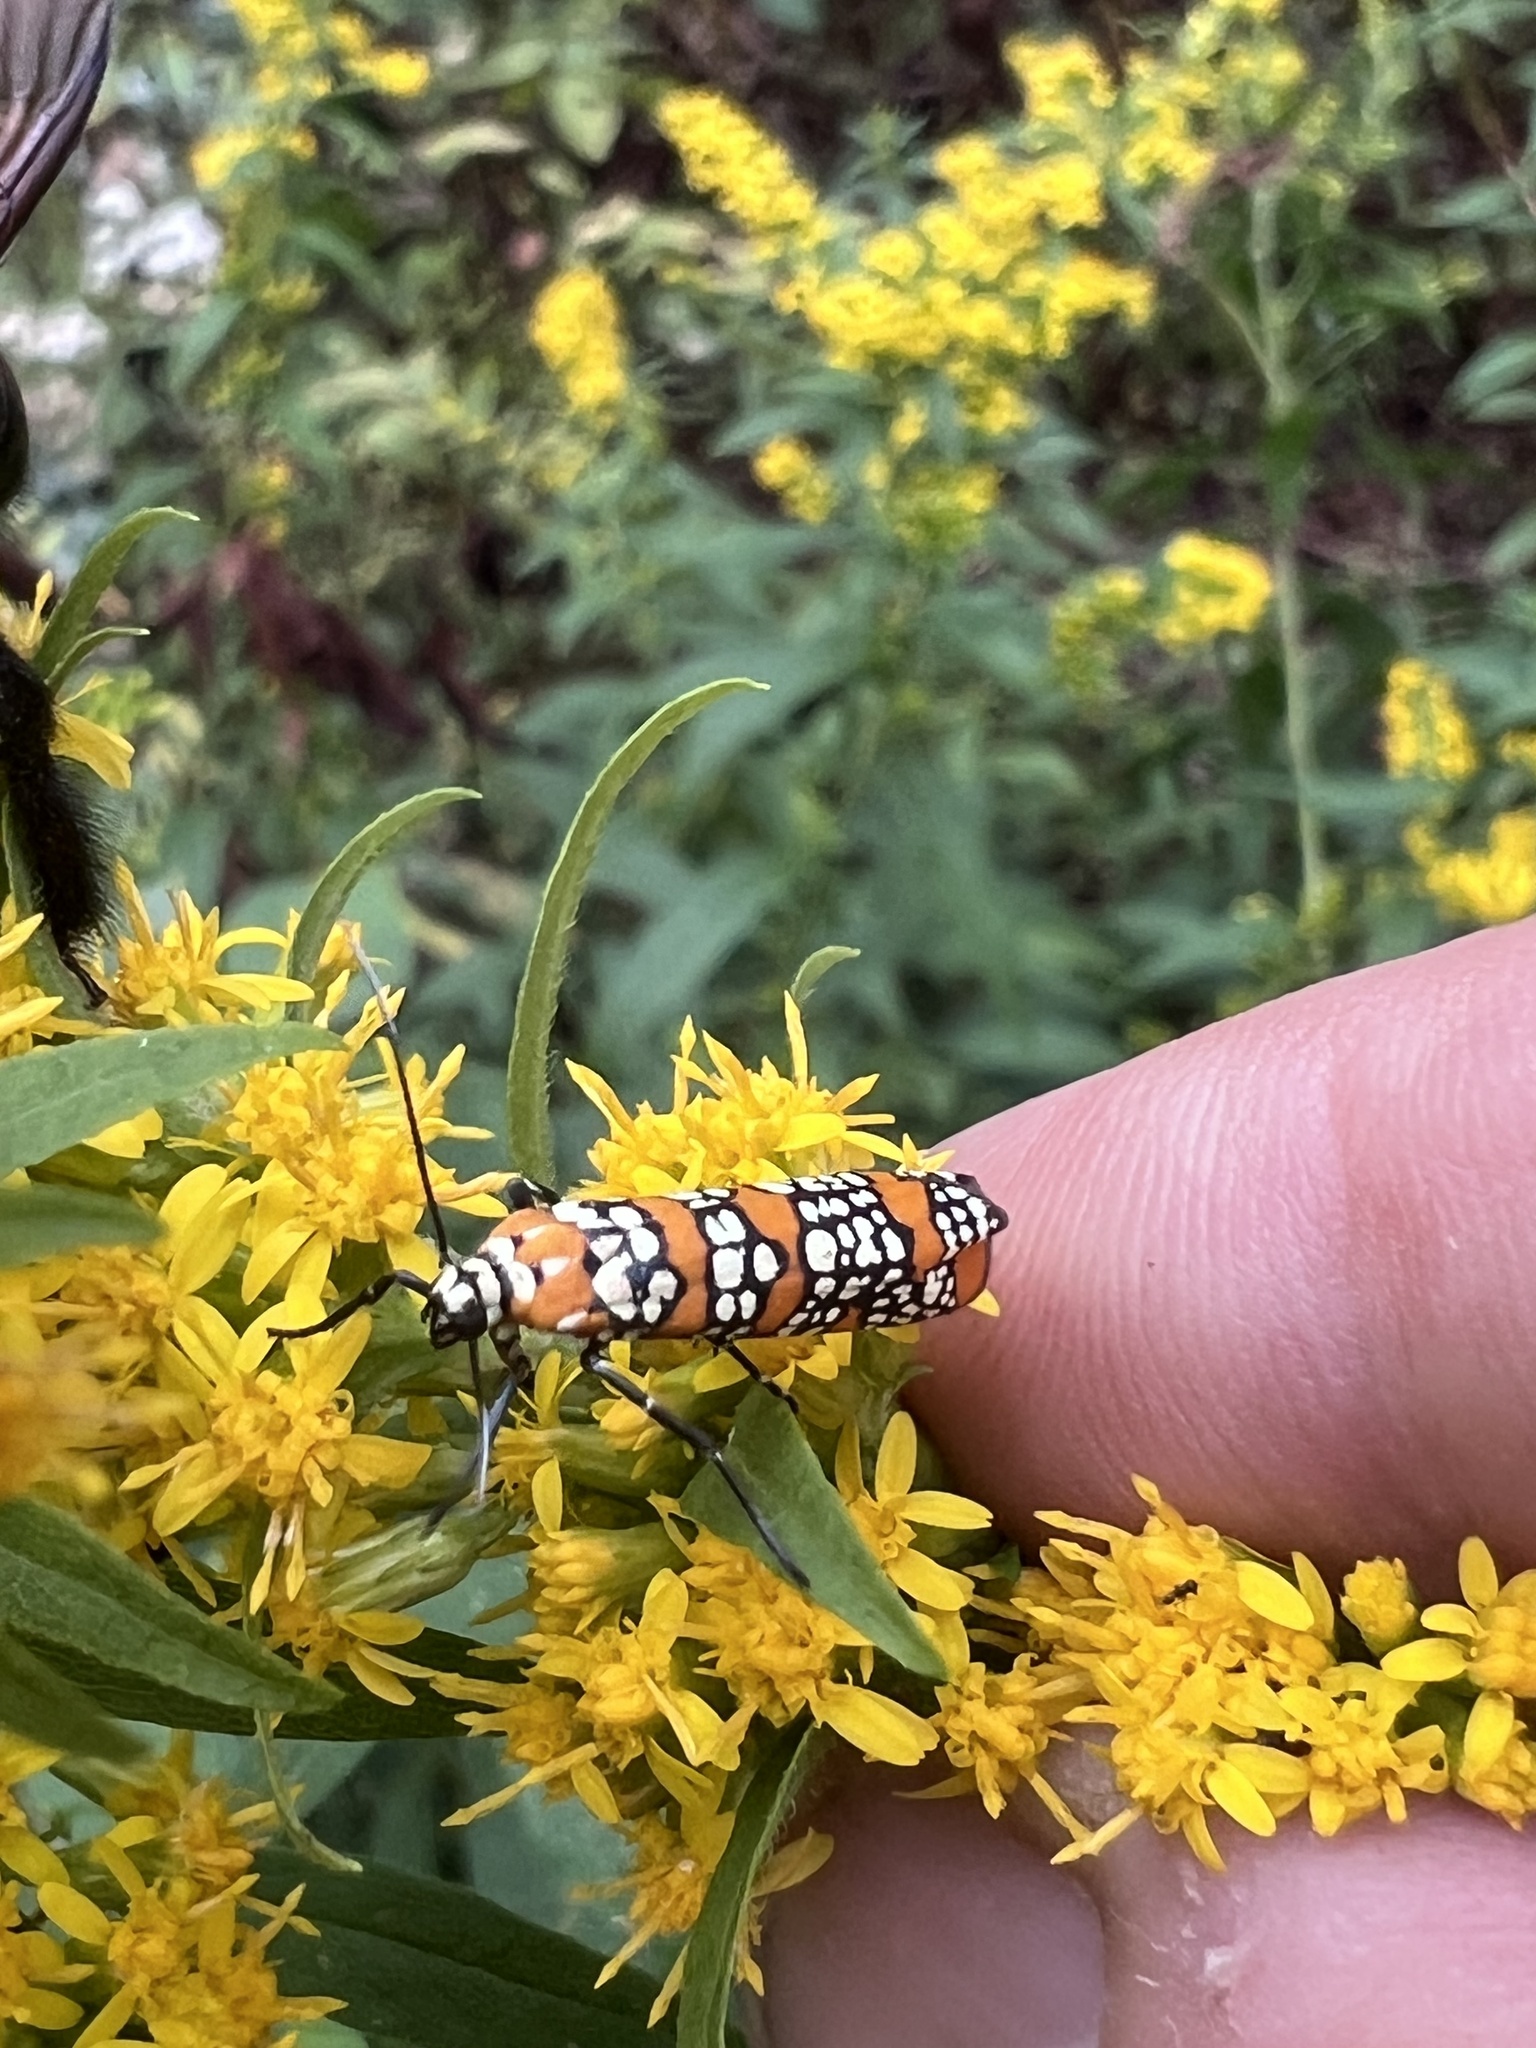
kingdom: Animalia
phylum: Arthropoda
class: Insecta
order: Lepidoptera
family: Attevidae
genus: Atteva
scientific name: Atteva punctella
